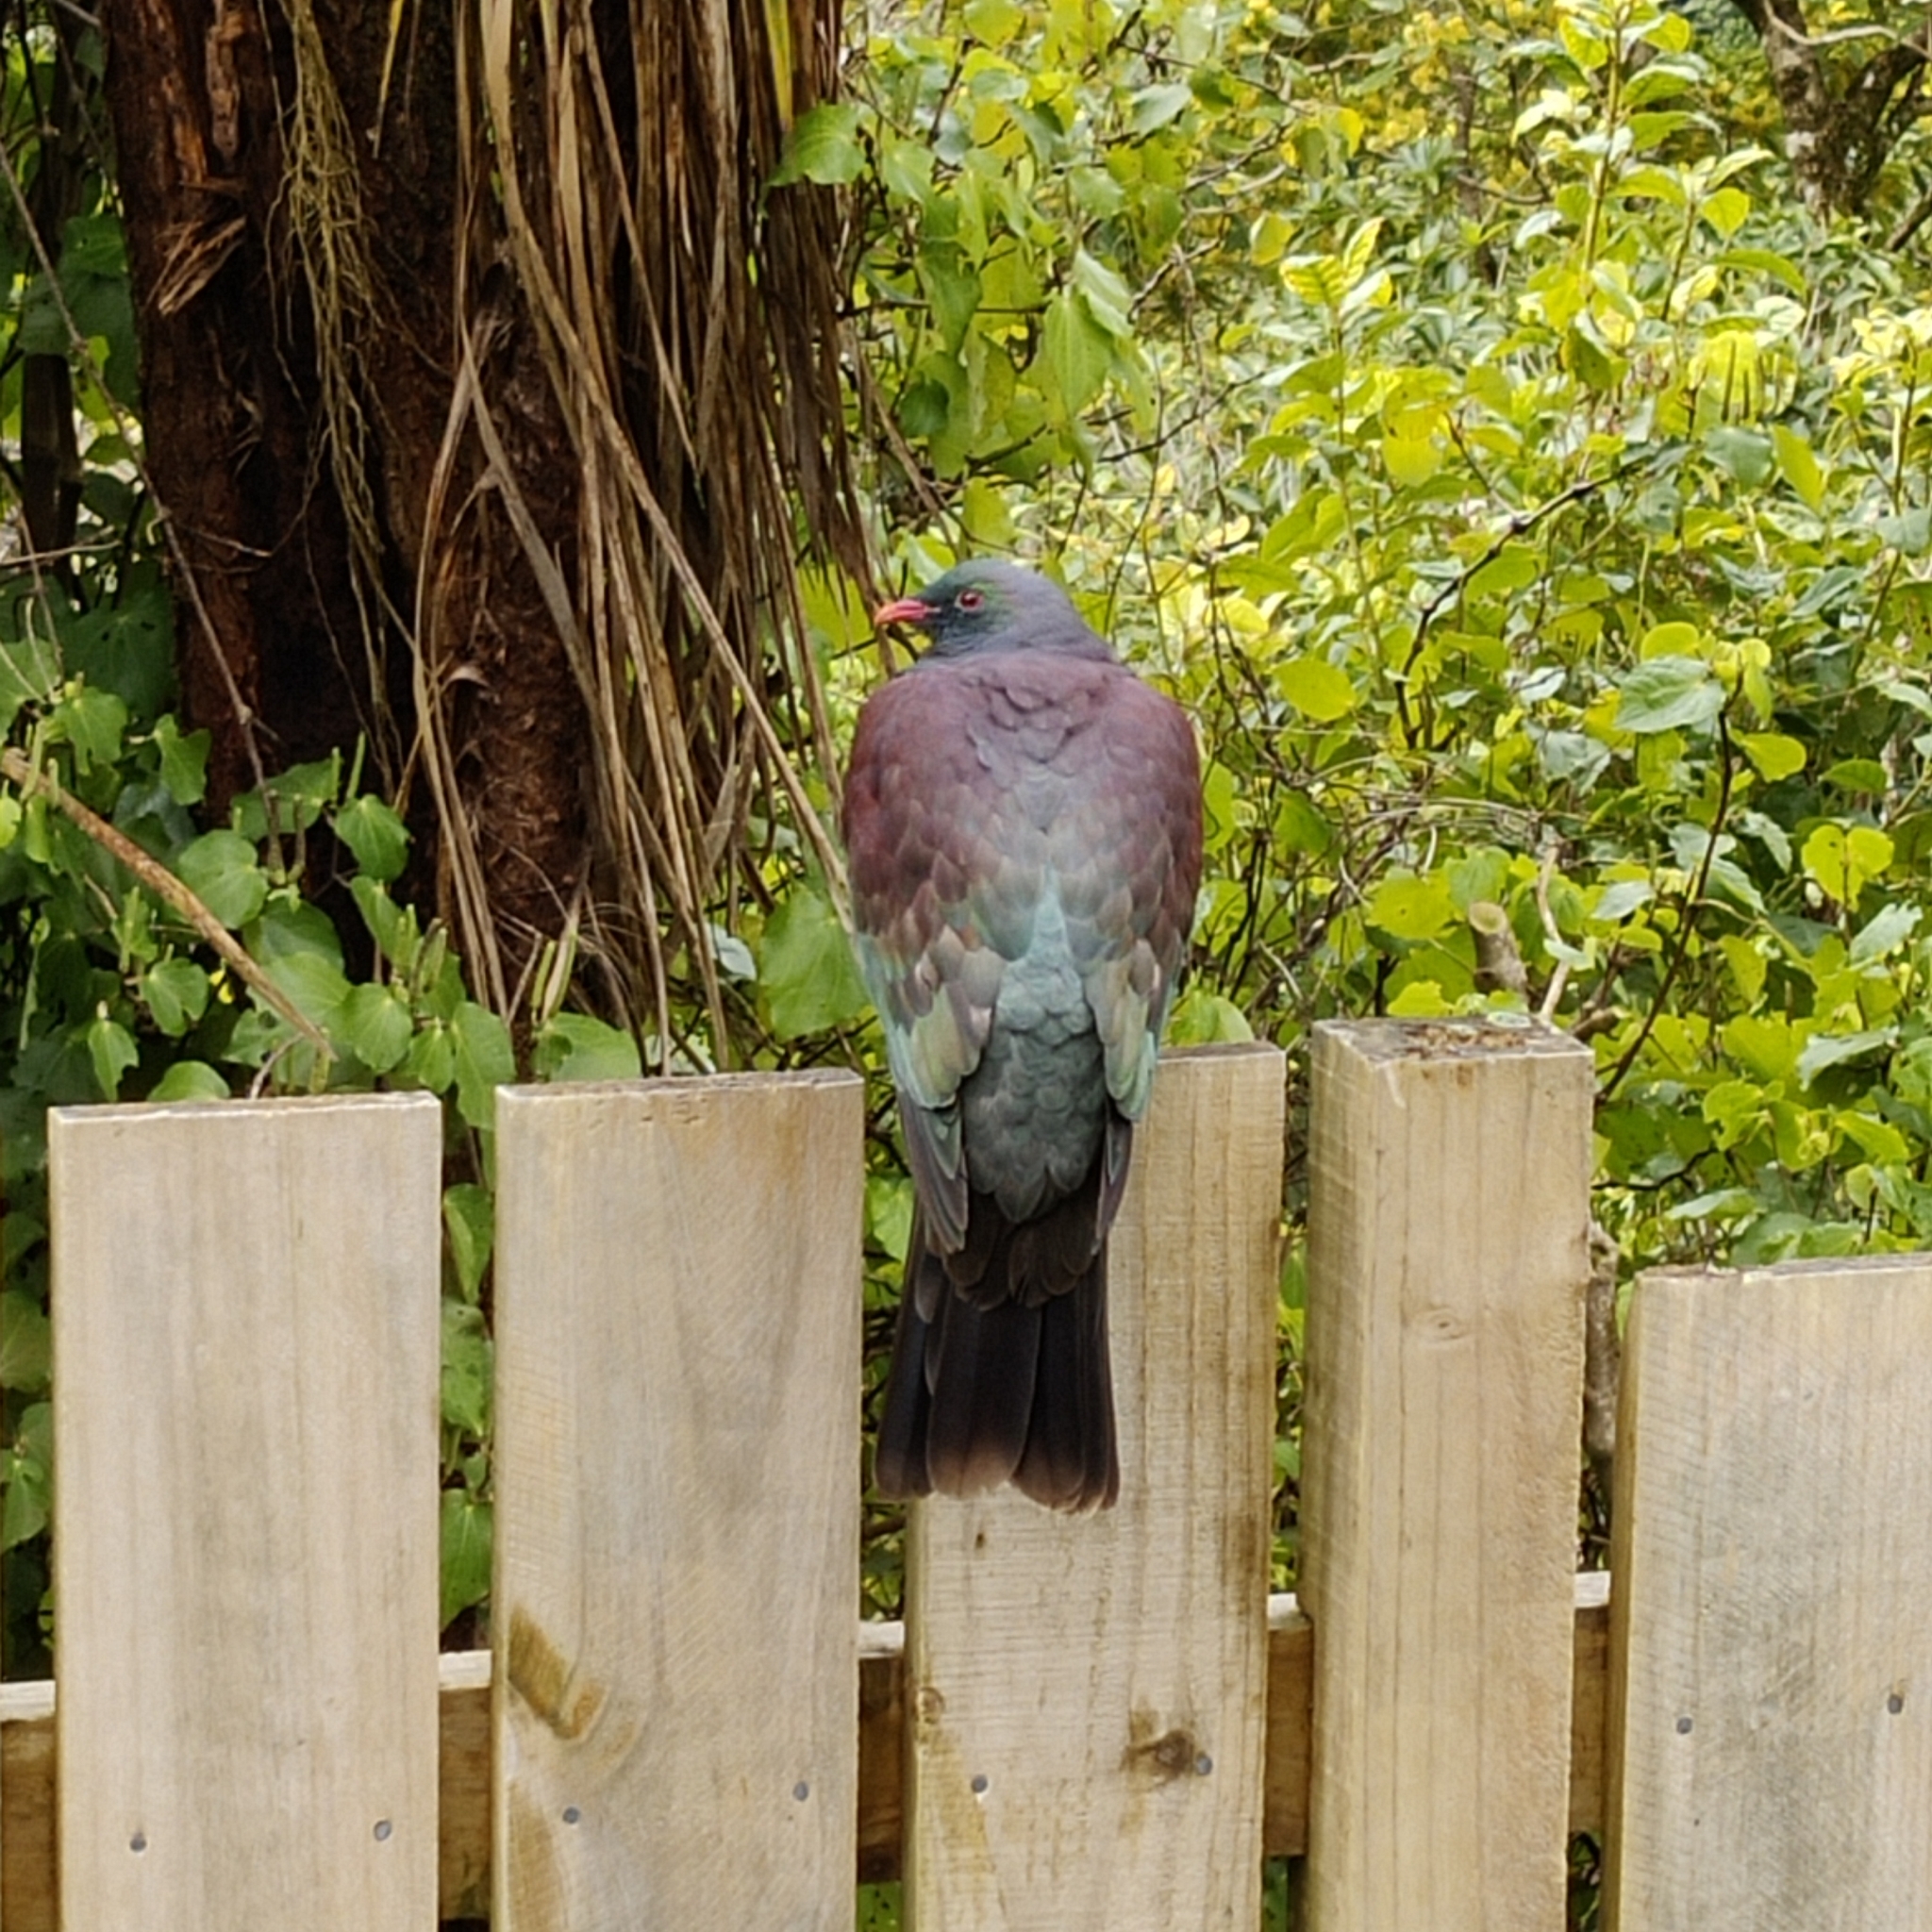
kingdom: Animalia
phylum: Chordata
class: Aves
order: Columbiformes
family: Columbidae
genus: Hemiphaga
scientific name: Hemiphaga novaeseelandiae
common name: New zealand pigeon
